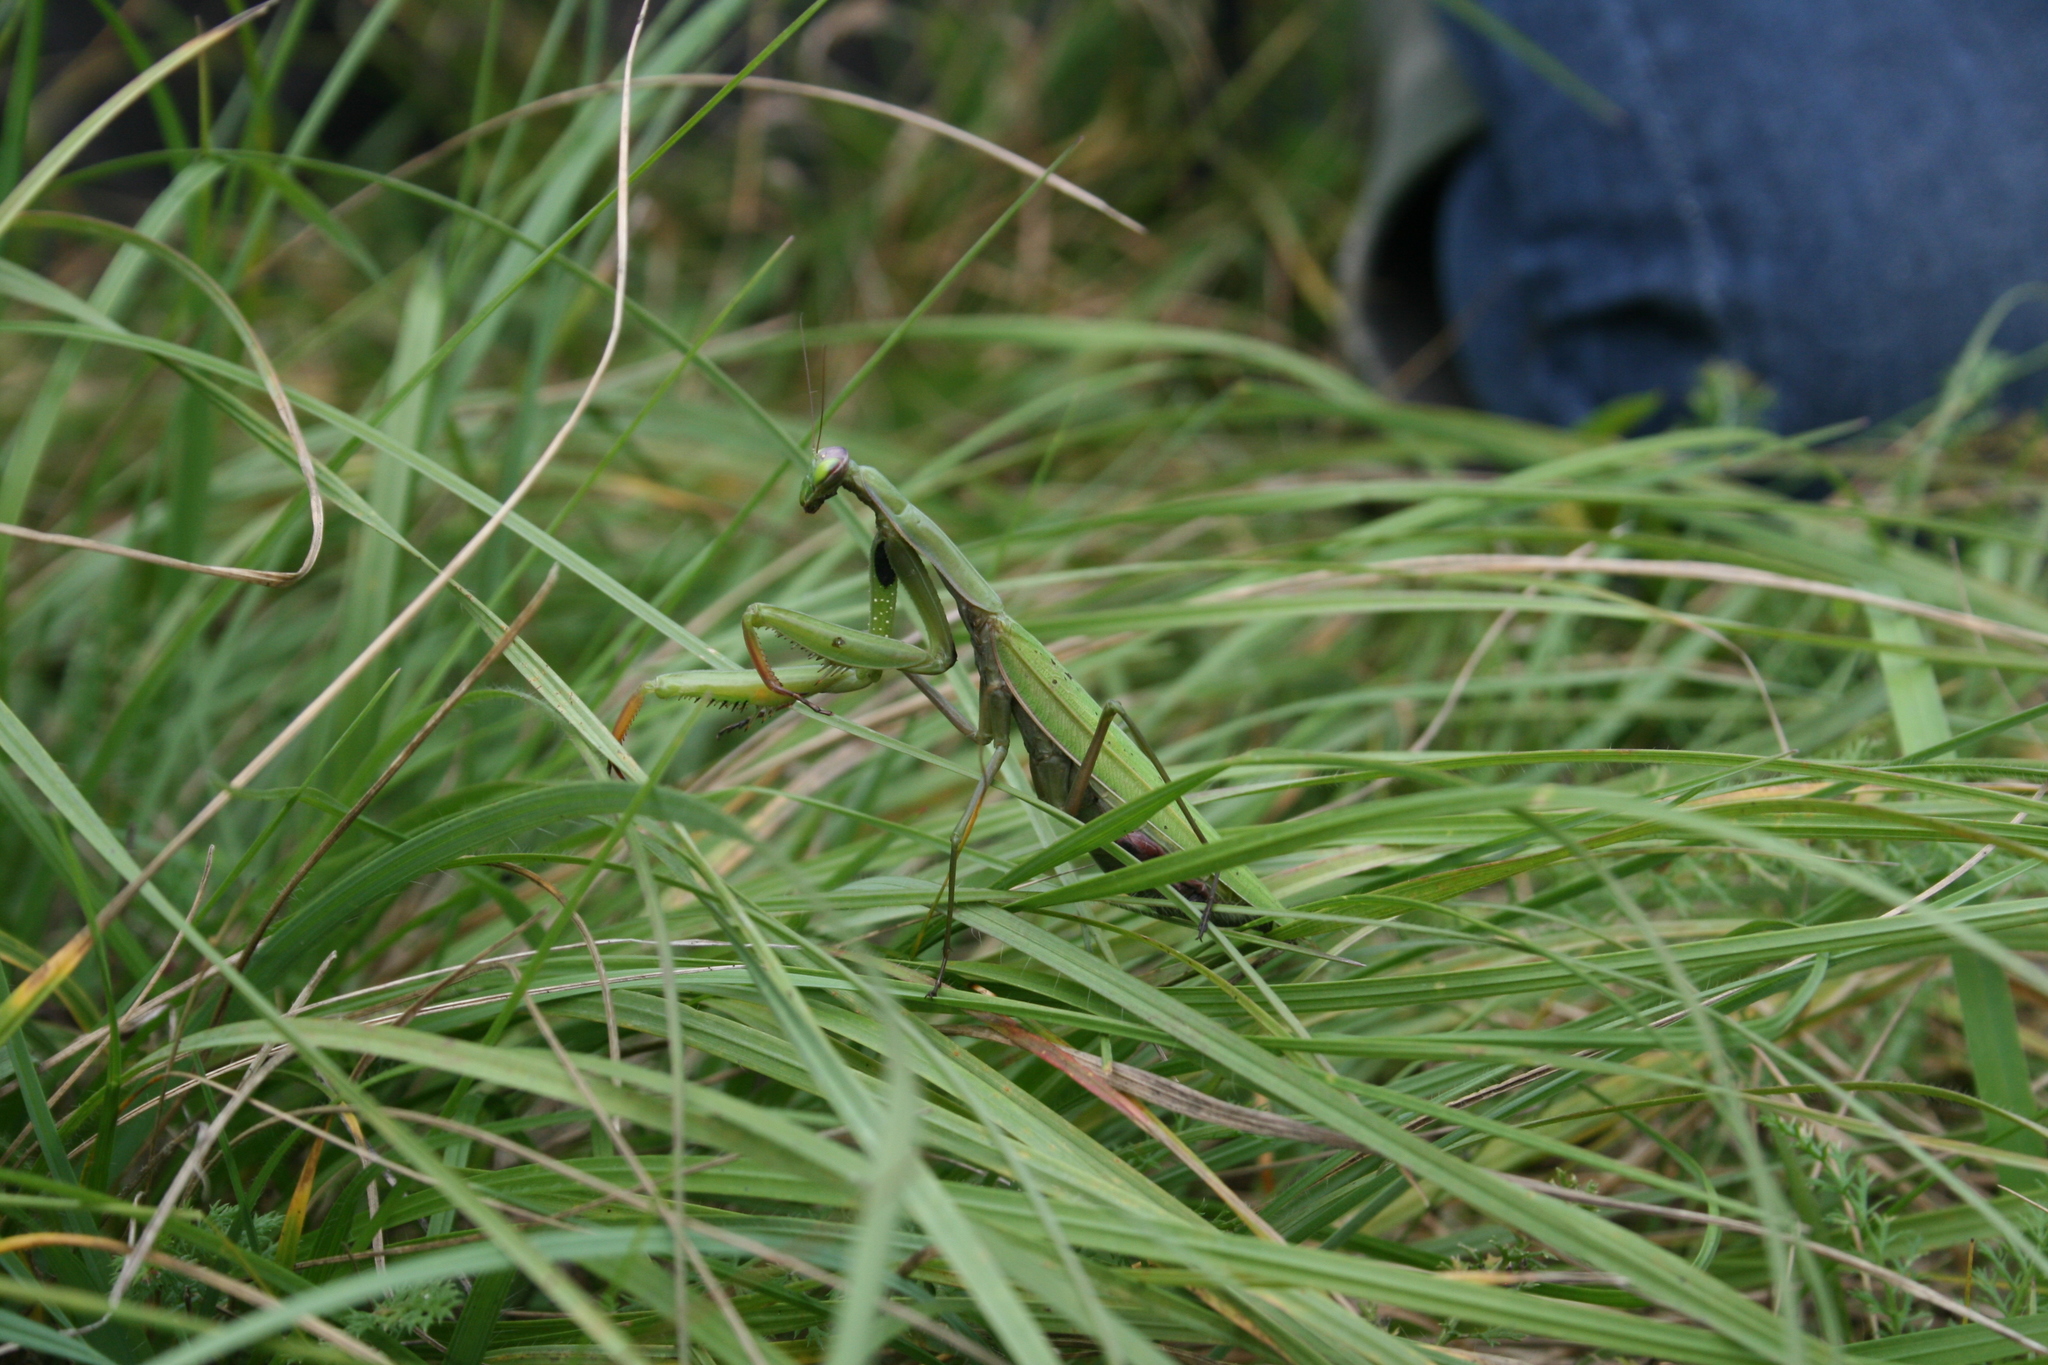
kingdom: Animalia
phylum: Arthropoda
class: Insecta
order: Mantodea
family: Mantidae
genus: Mantis
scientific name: Mantis religiosa
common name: Praying mantis
